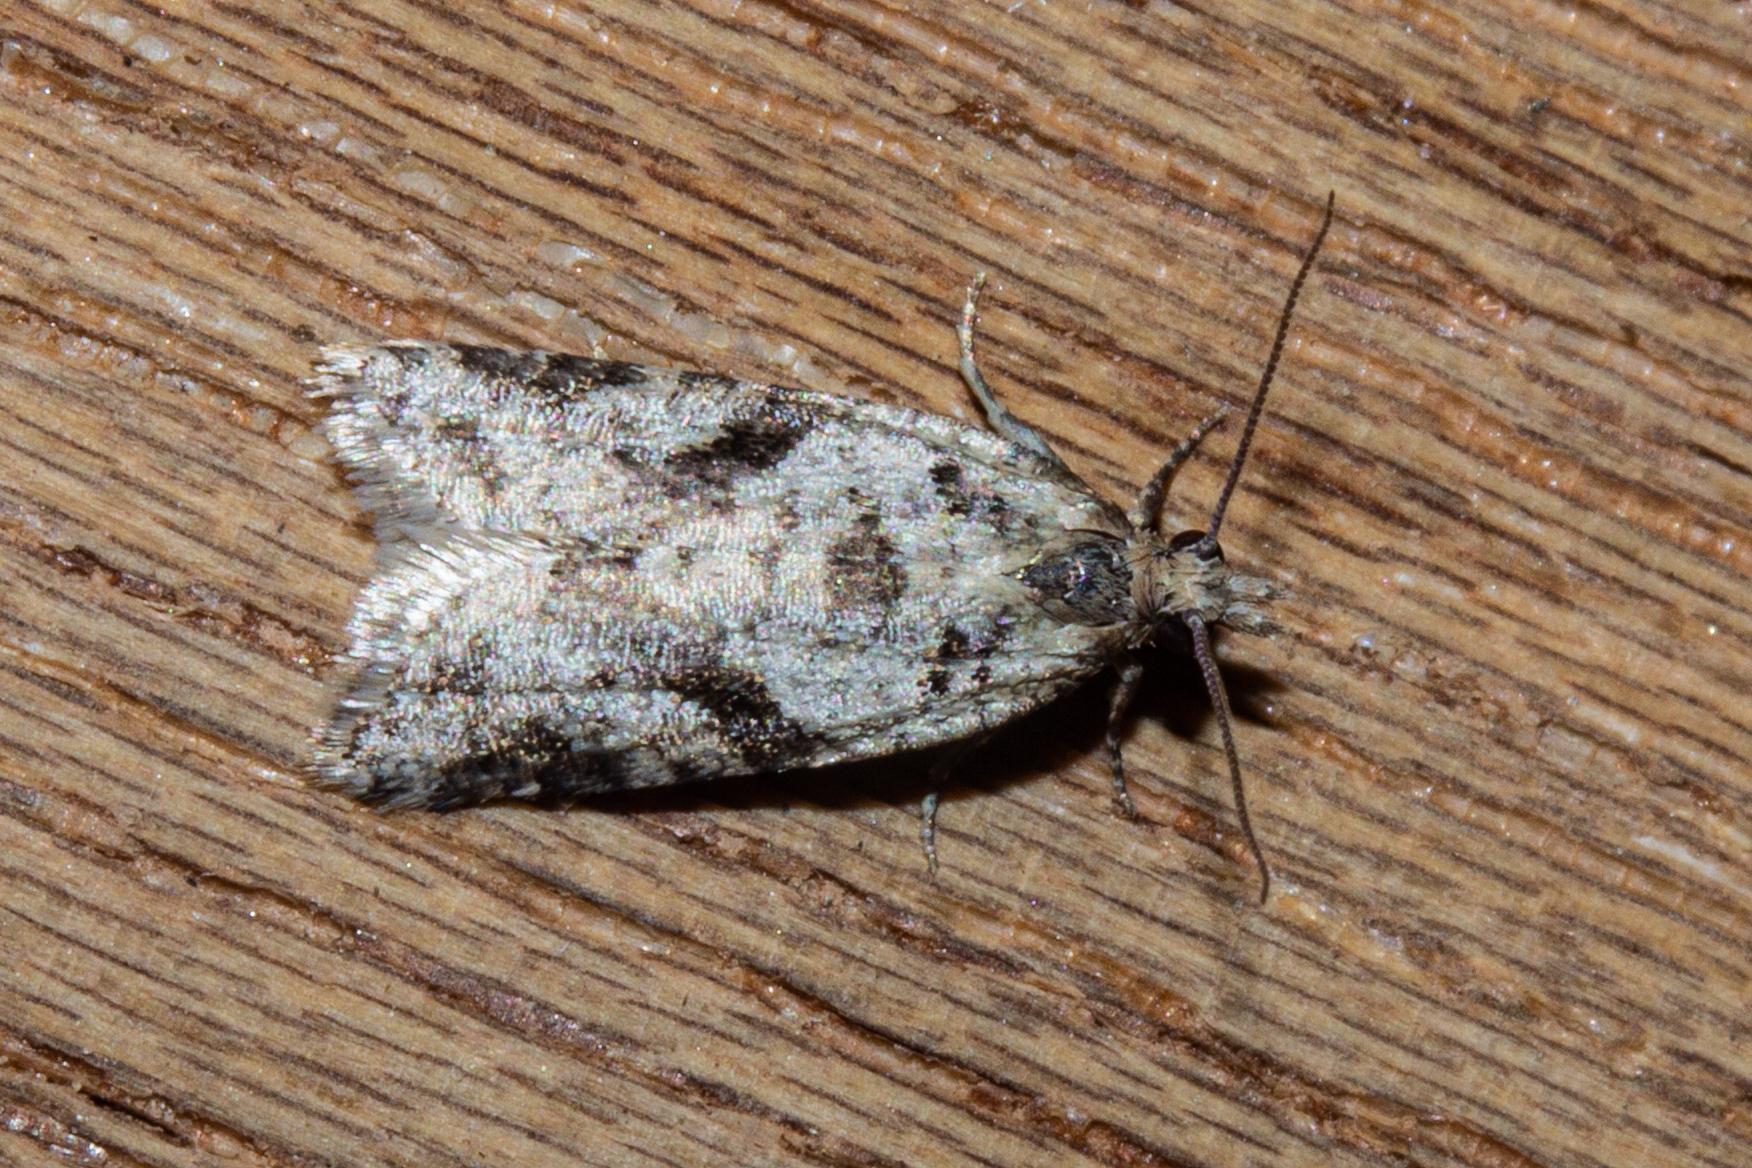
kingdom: Animalia
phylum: Arthropoda
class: Insecta
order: Lepidoptera
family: Tortricidae
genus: Capua
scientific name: Capua semiferana
